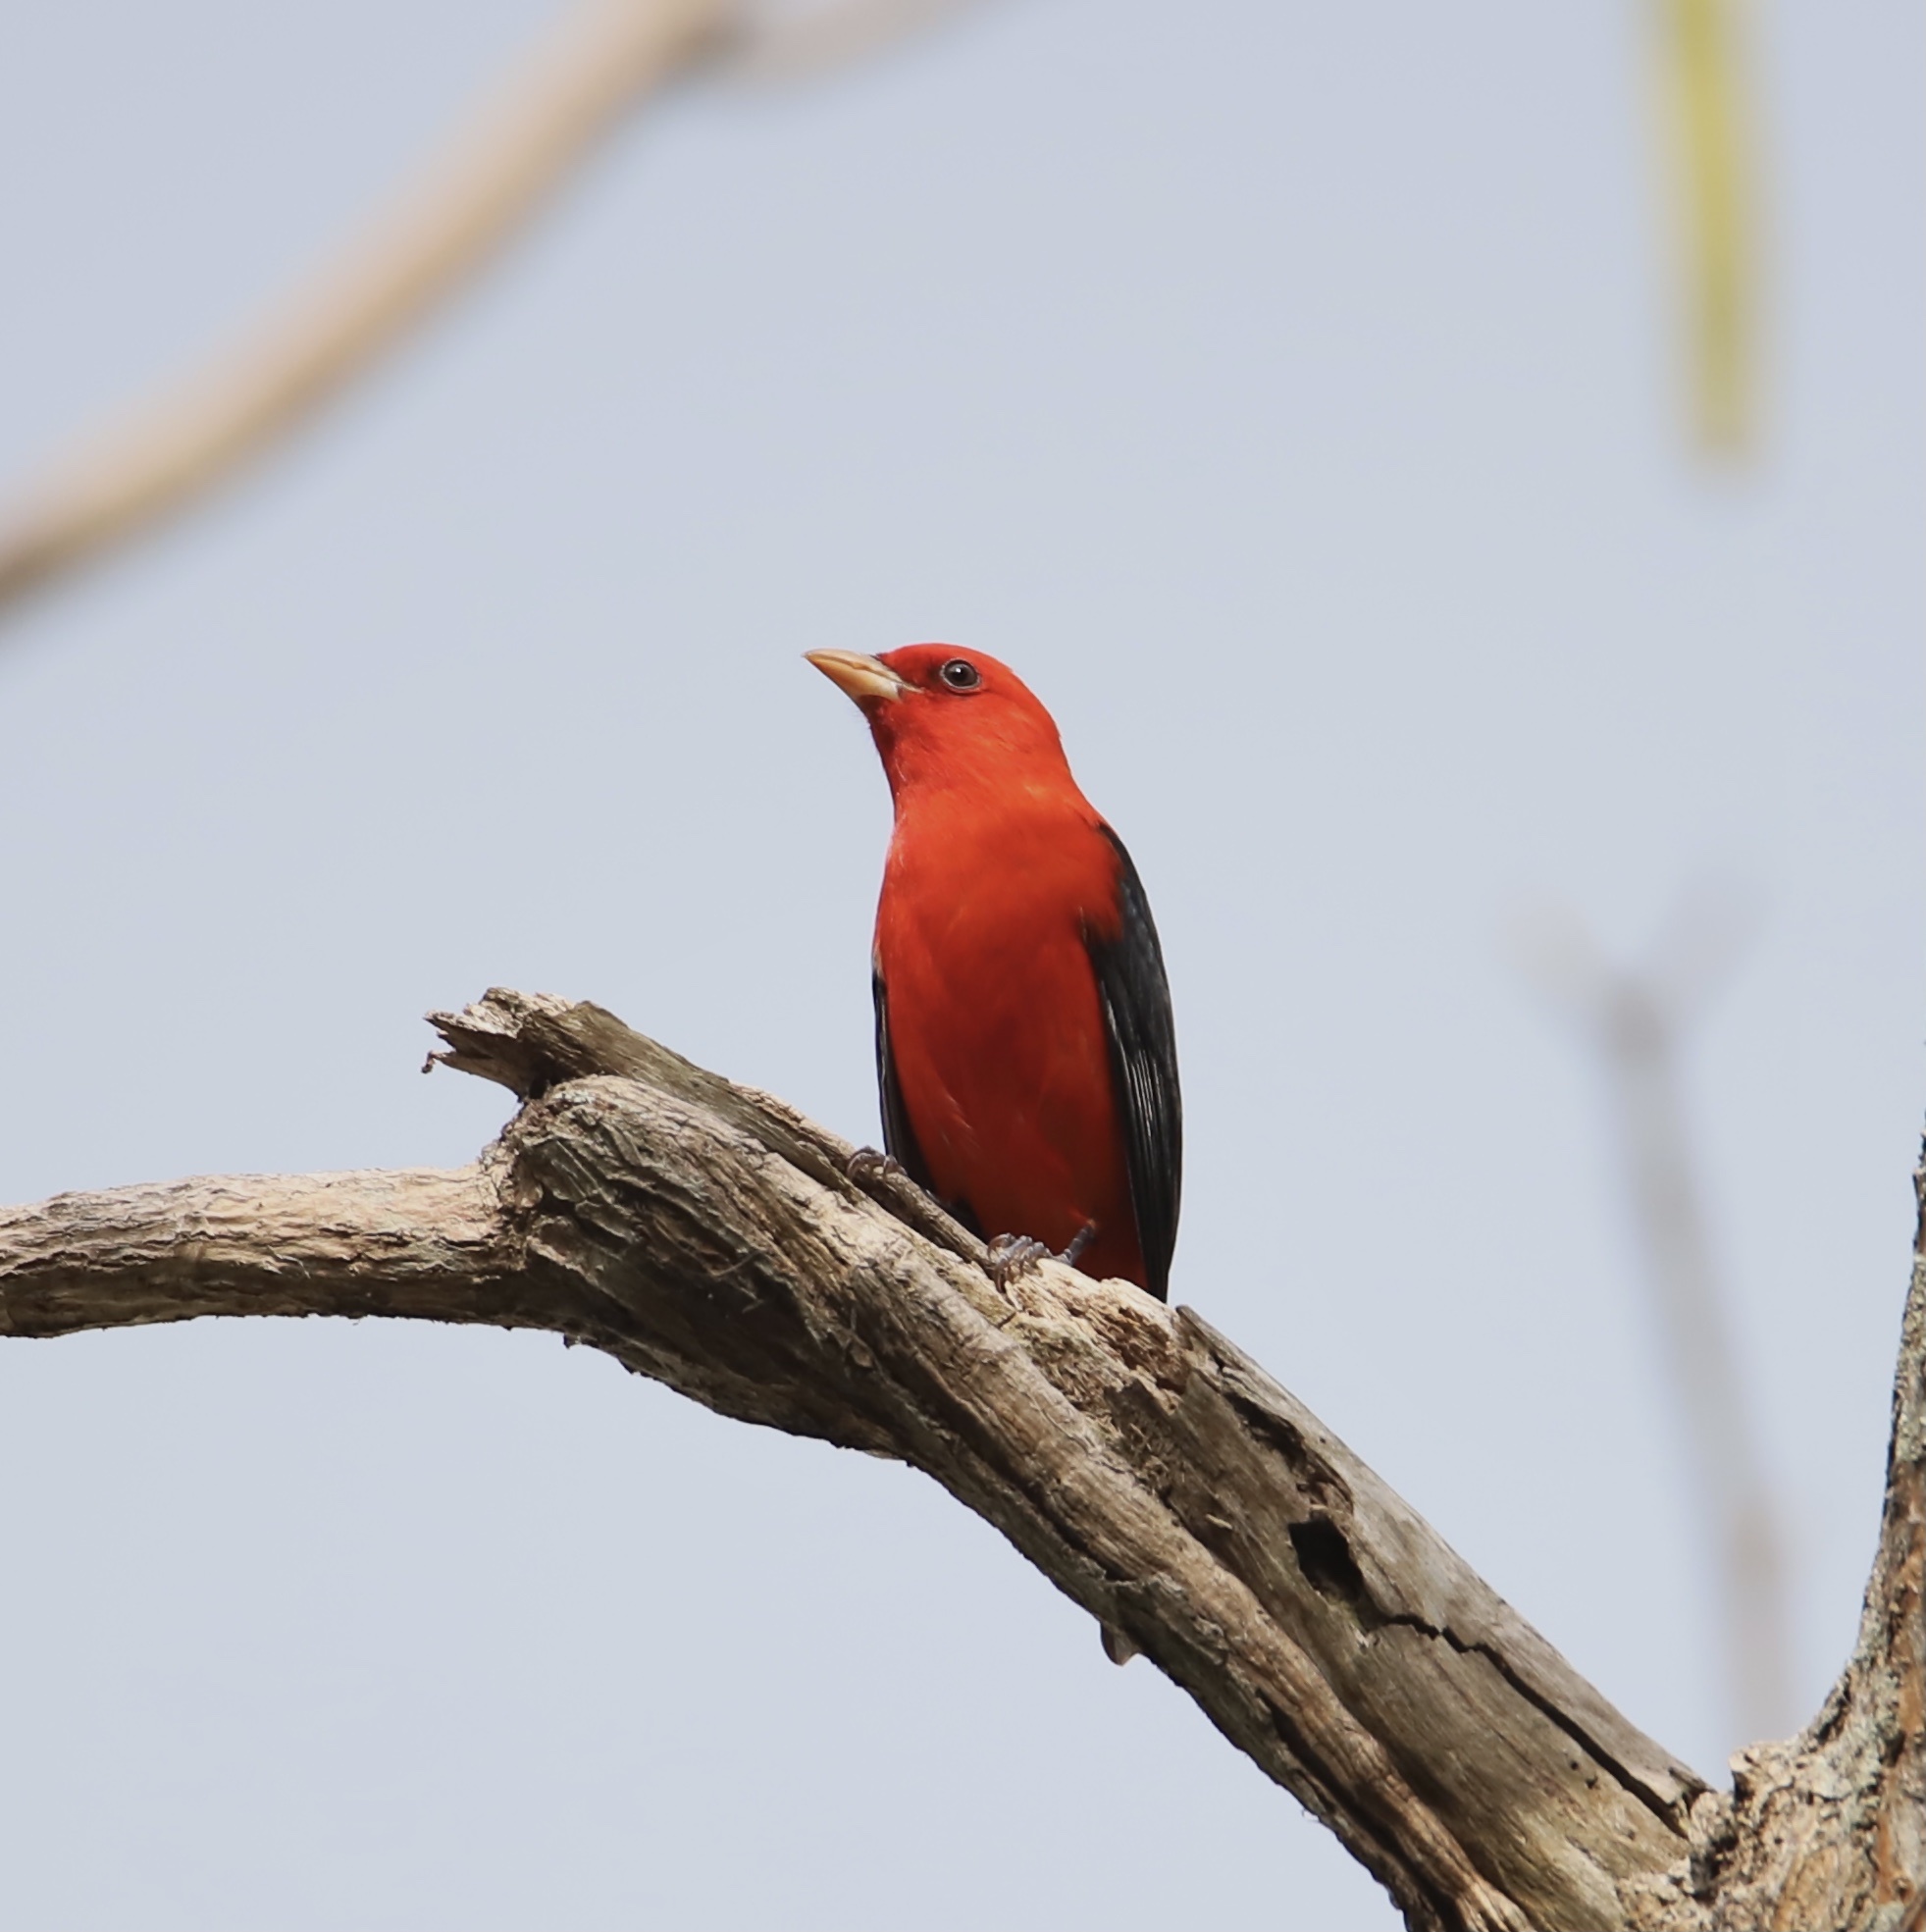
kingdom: Animalia
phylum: Chordata
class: Aves
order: Passeriformes
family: Cardinalidae
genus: Piranga
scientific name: Piranga olivacea
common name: Scarlet tanager
